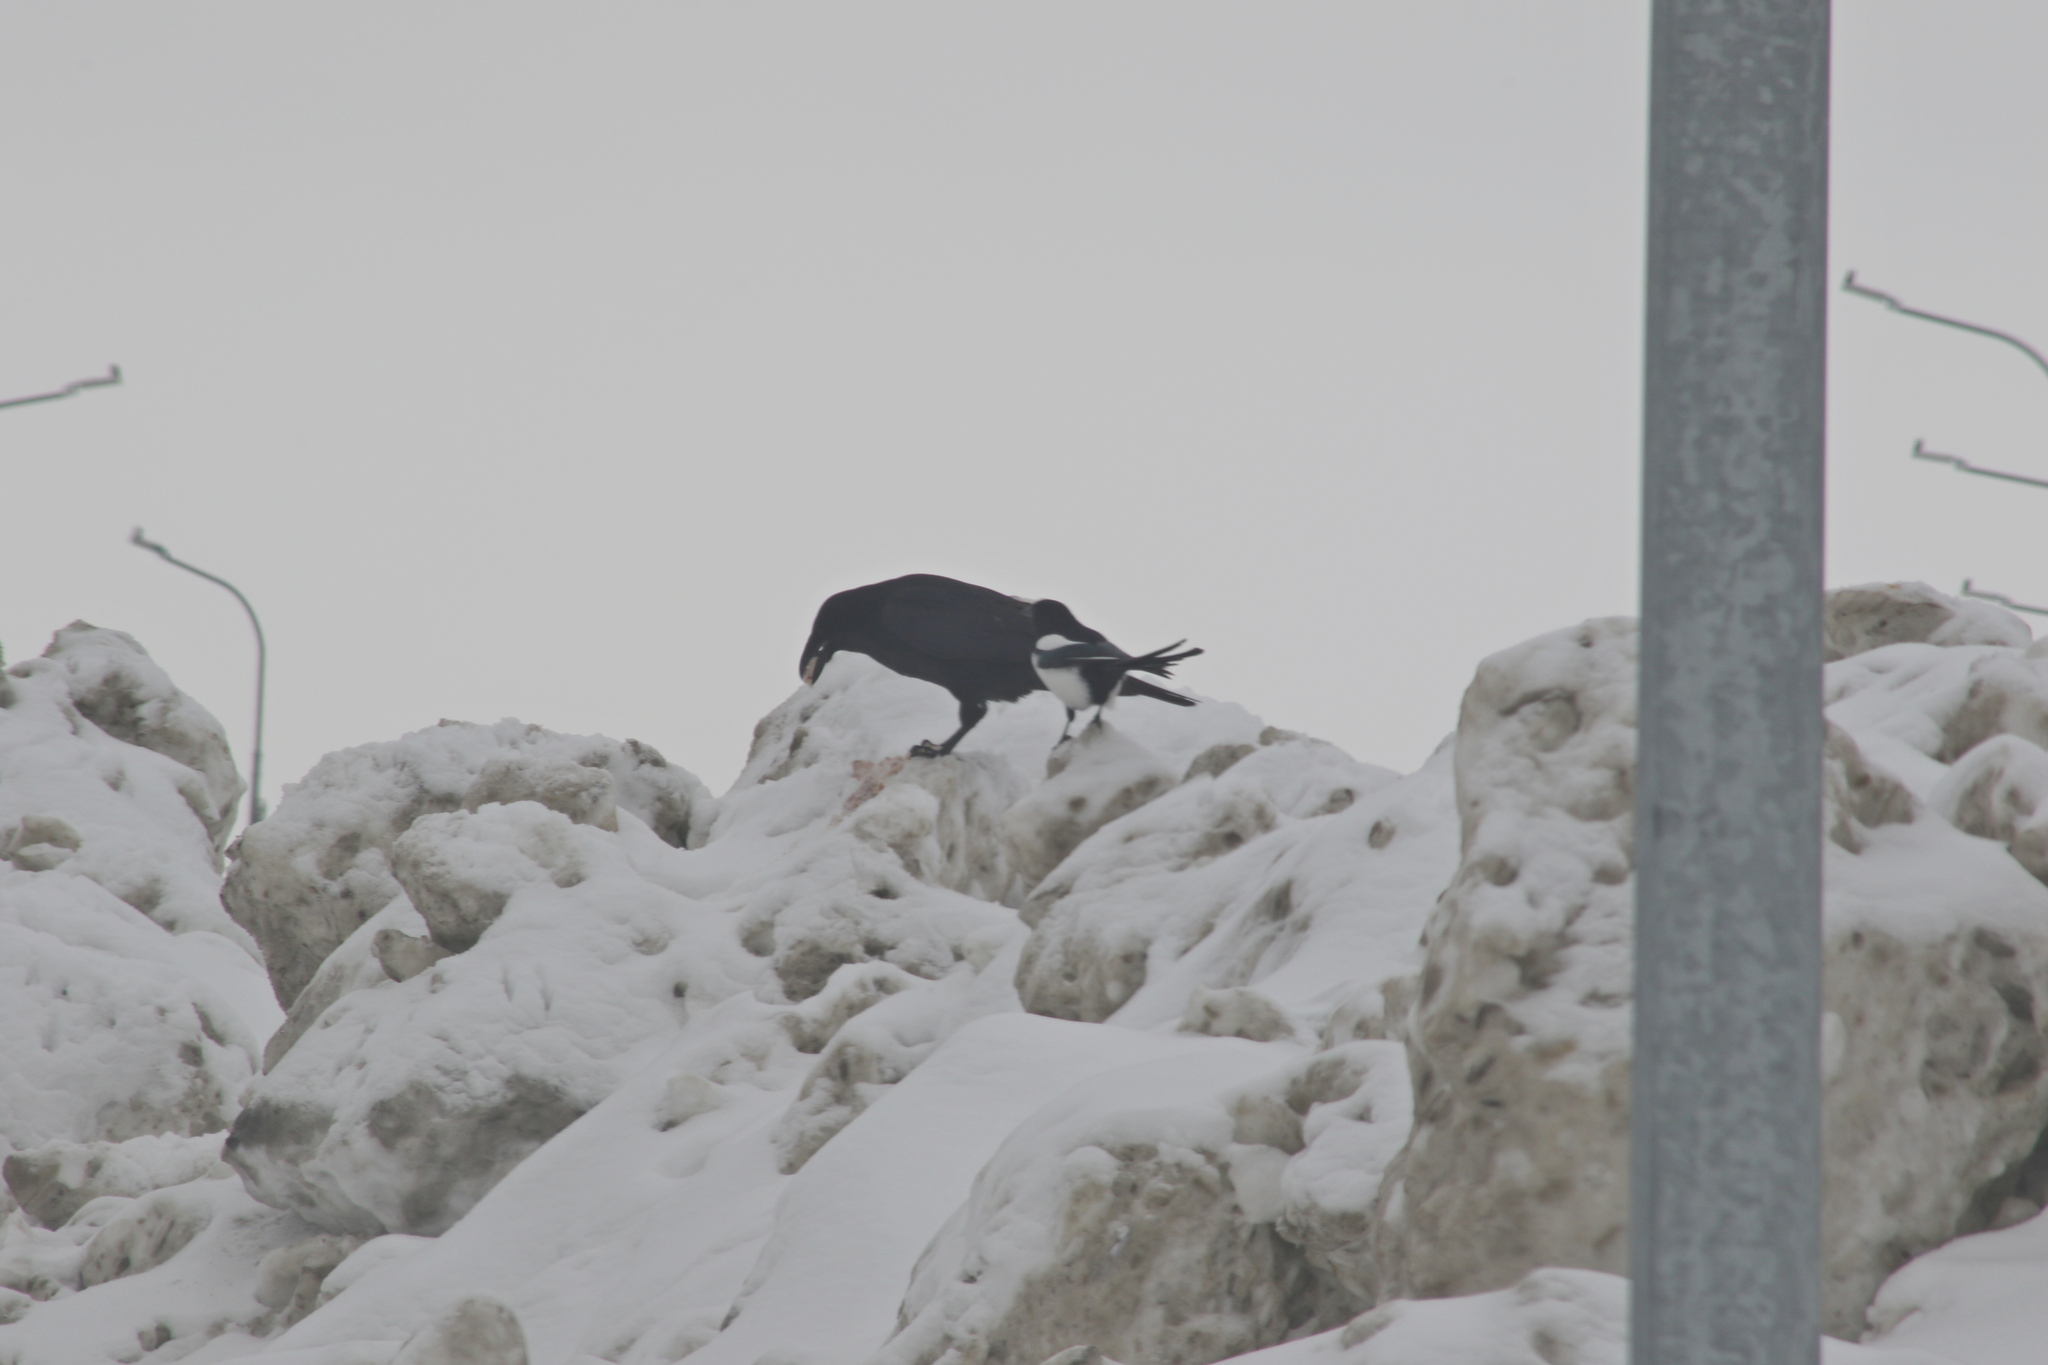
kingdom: Animalia
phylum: Chordata
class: Aves
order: Passeriformes
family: Corvidae
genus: Pica
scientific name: Pica pica
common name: Eurasian magpie
